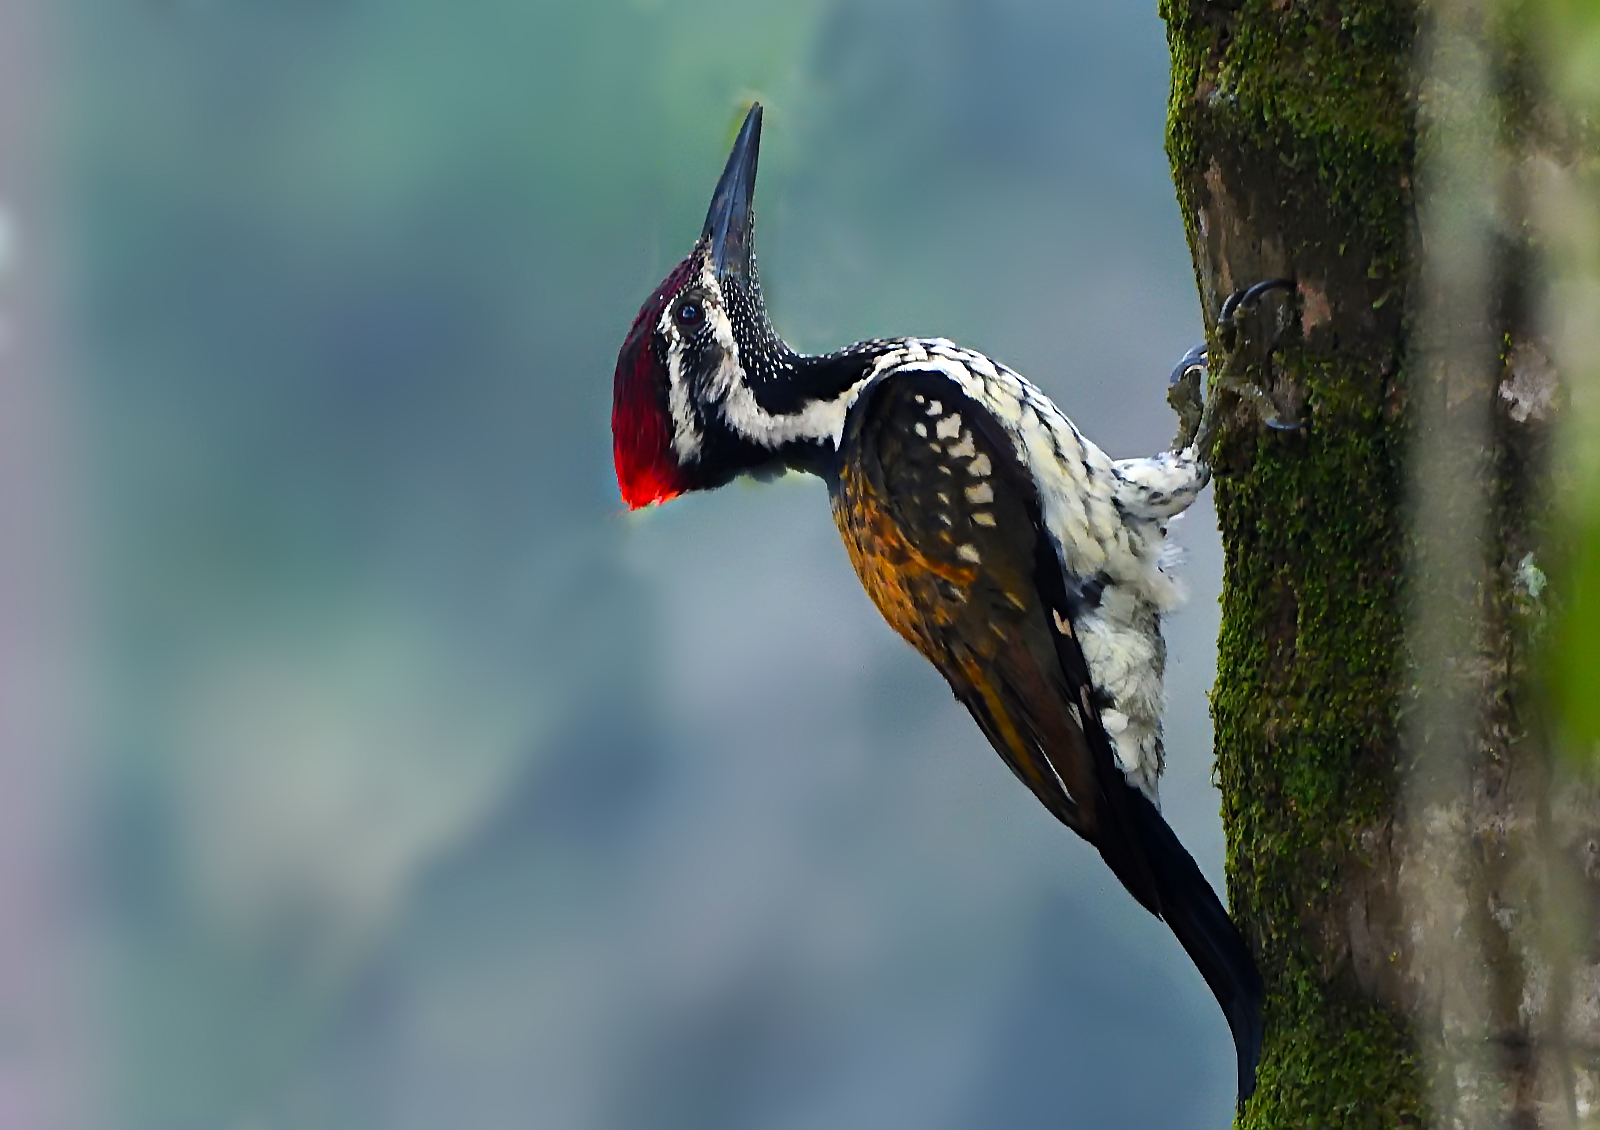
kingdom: Animalia
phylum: Chordata
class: Aves
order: Piciformes
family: Picidae
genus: Dinopium
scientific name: Dinopium benghalense
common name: Black-rumped flameback
